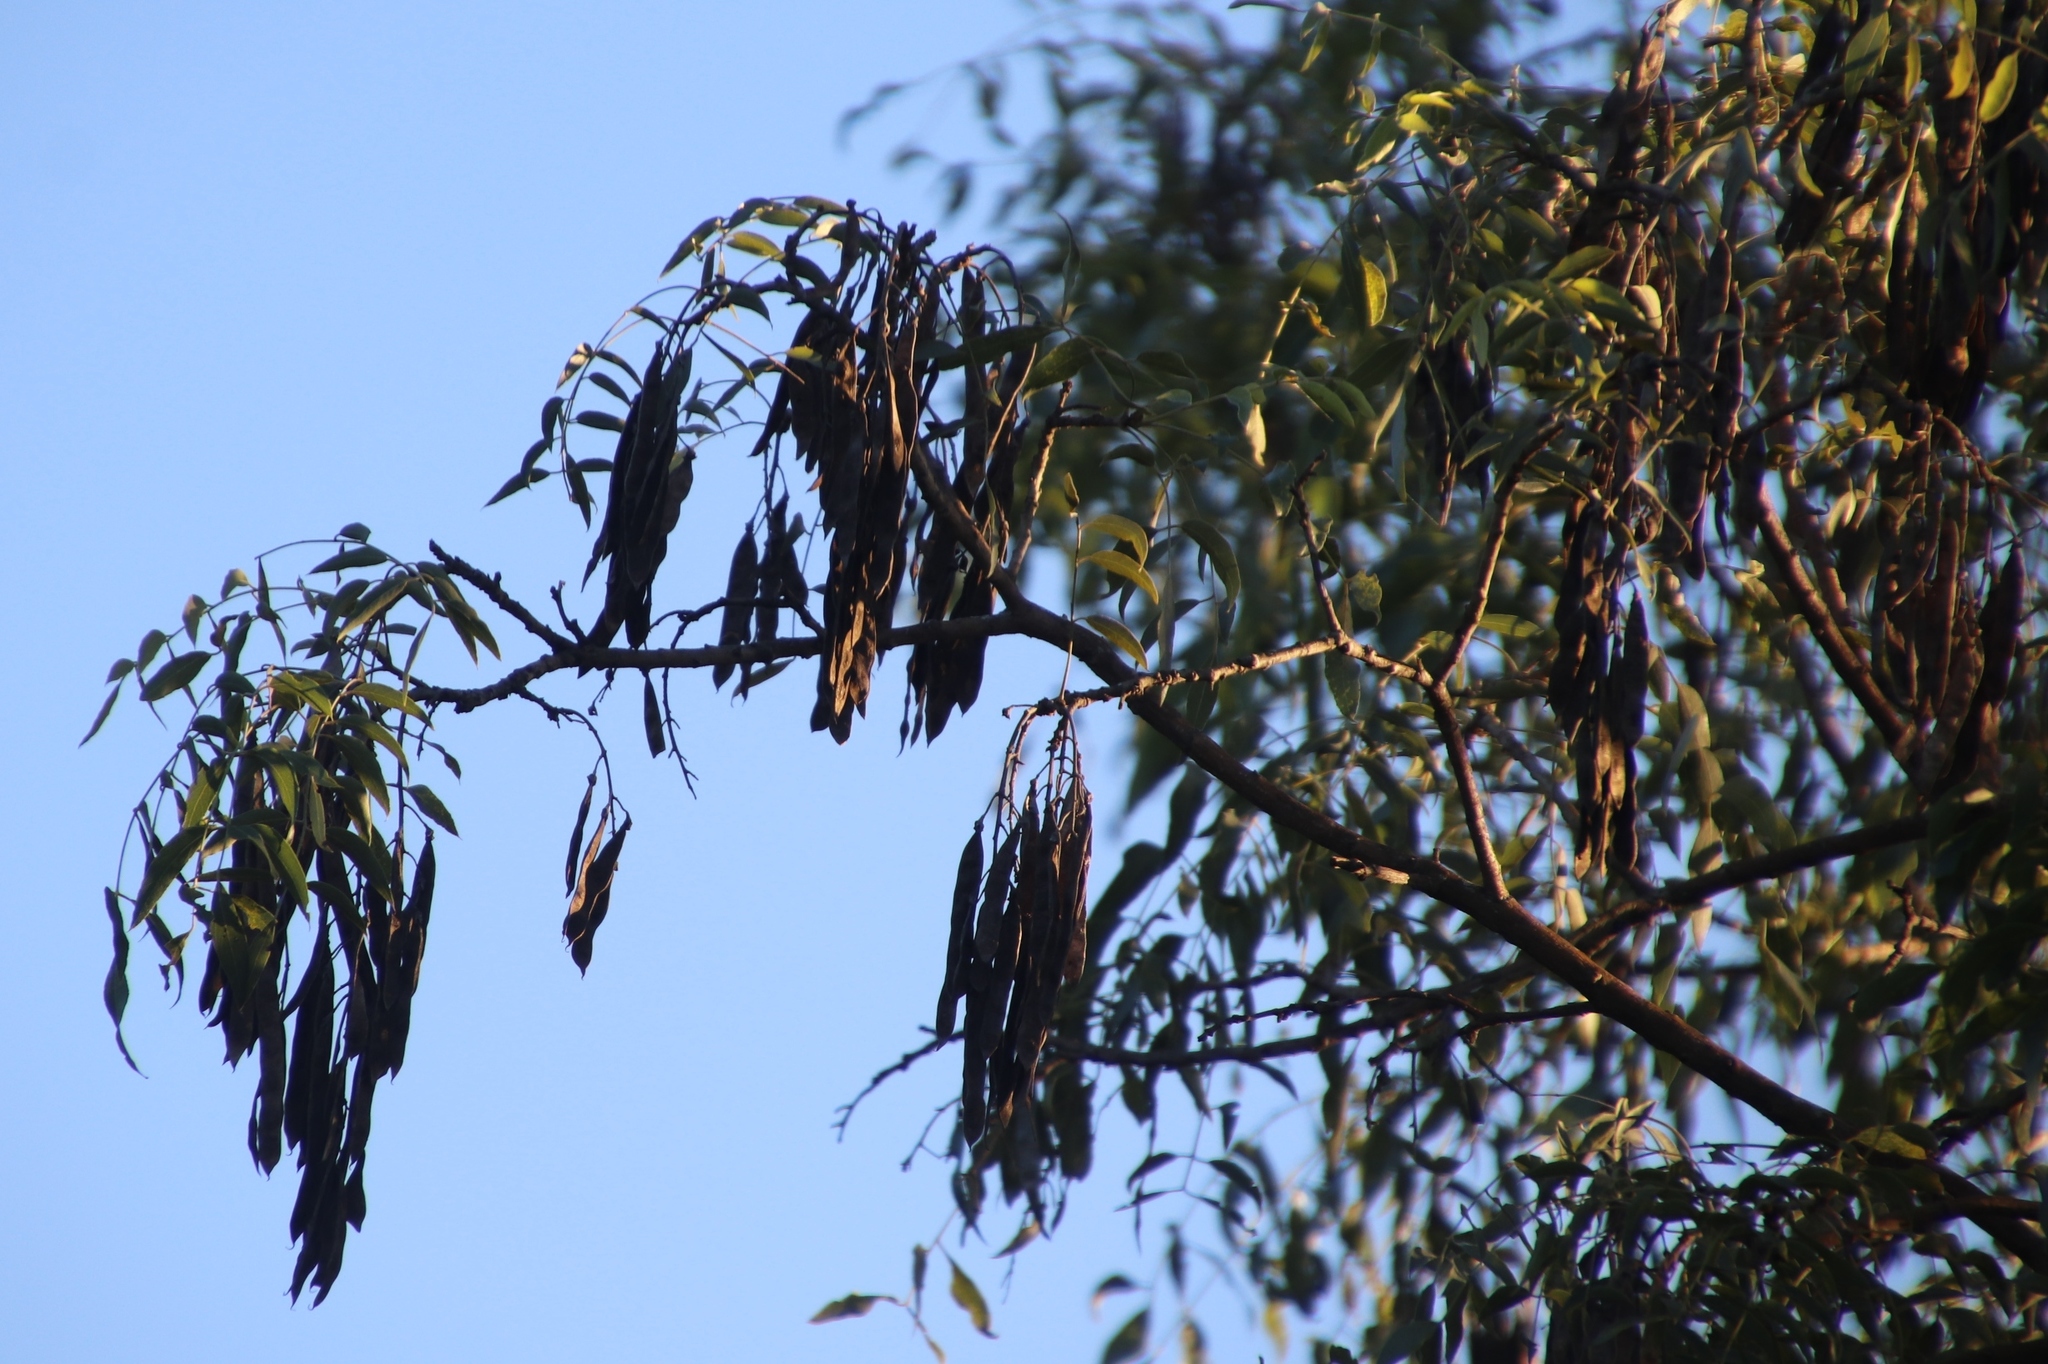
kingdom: Plantae
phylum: Tracheophyta
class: Magnoliopsida
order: Fabales
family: Fabaceae
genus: Bolusanthus
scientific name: Bolusanthus speciosus
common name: Tree wisteria
